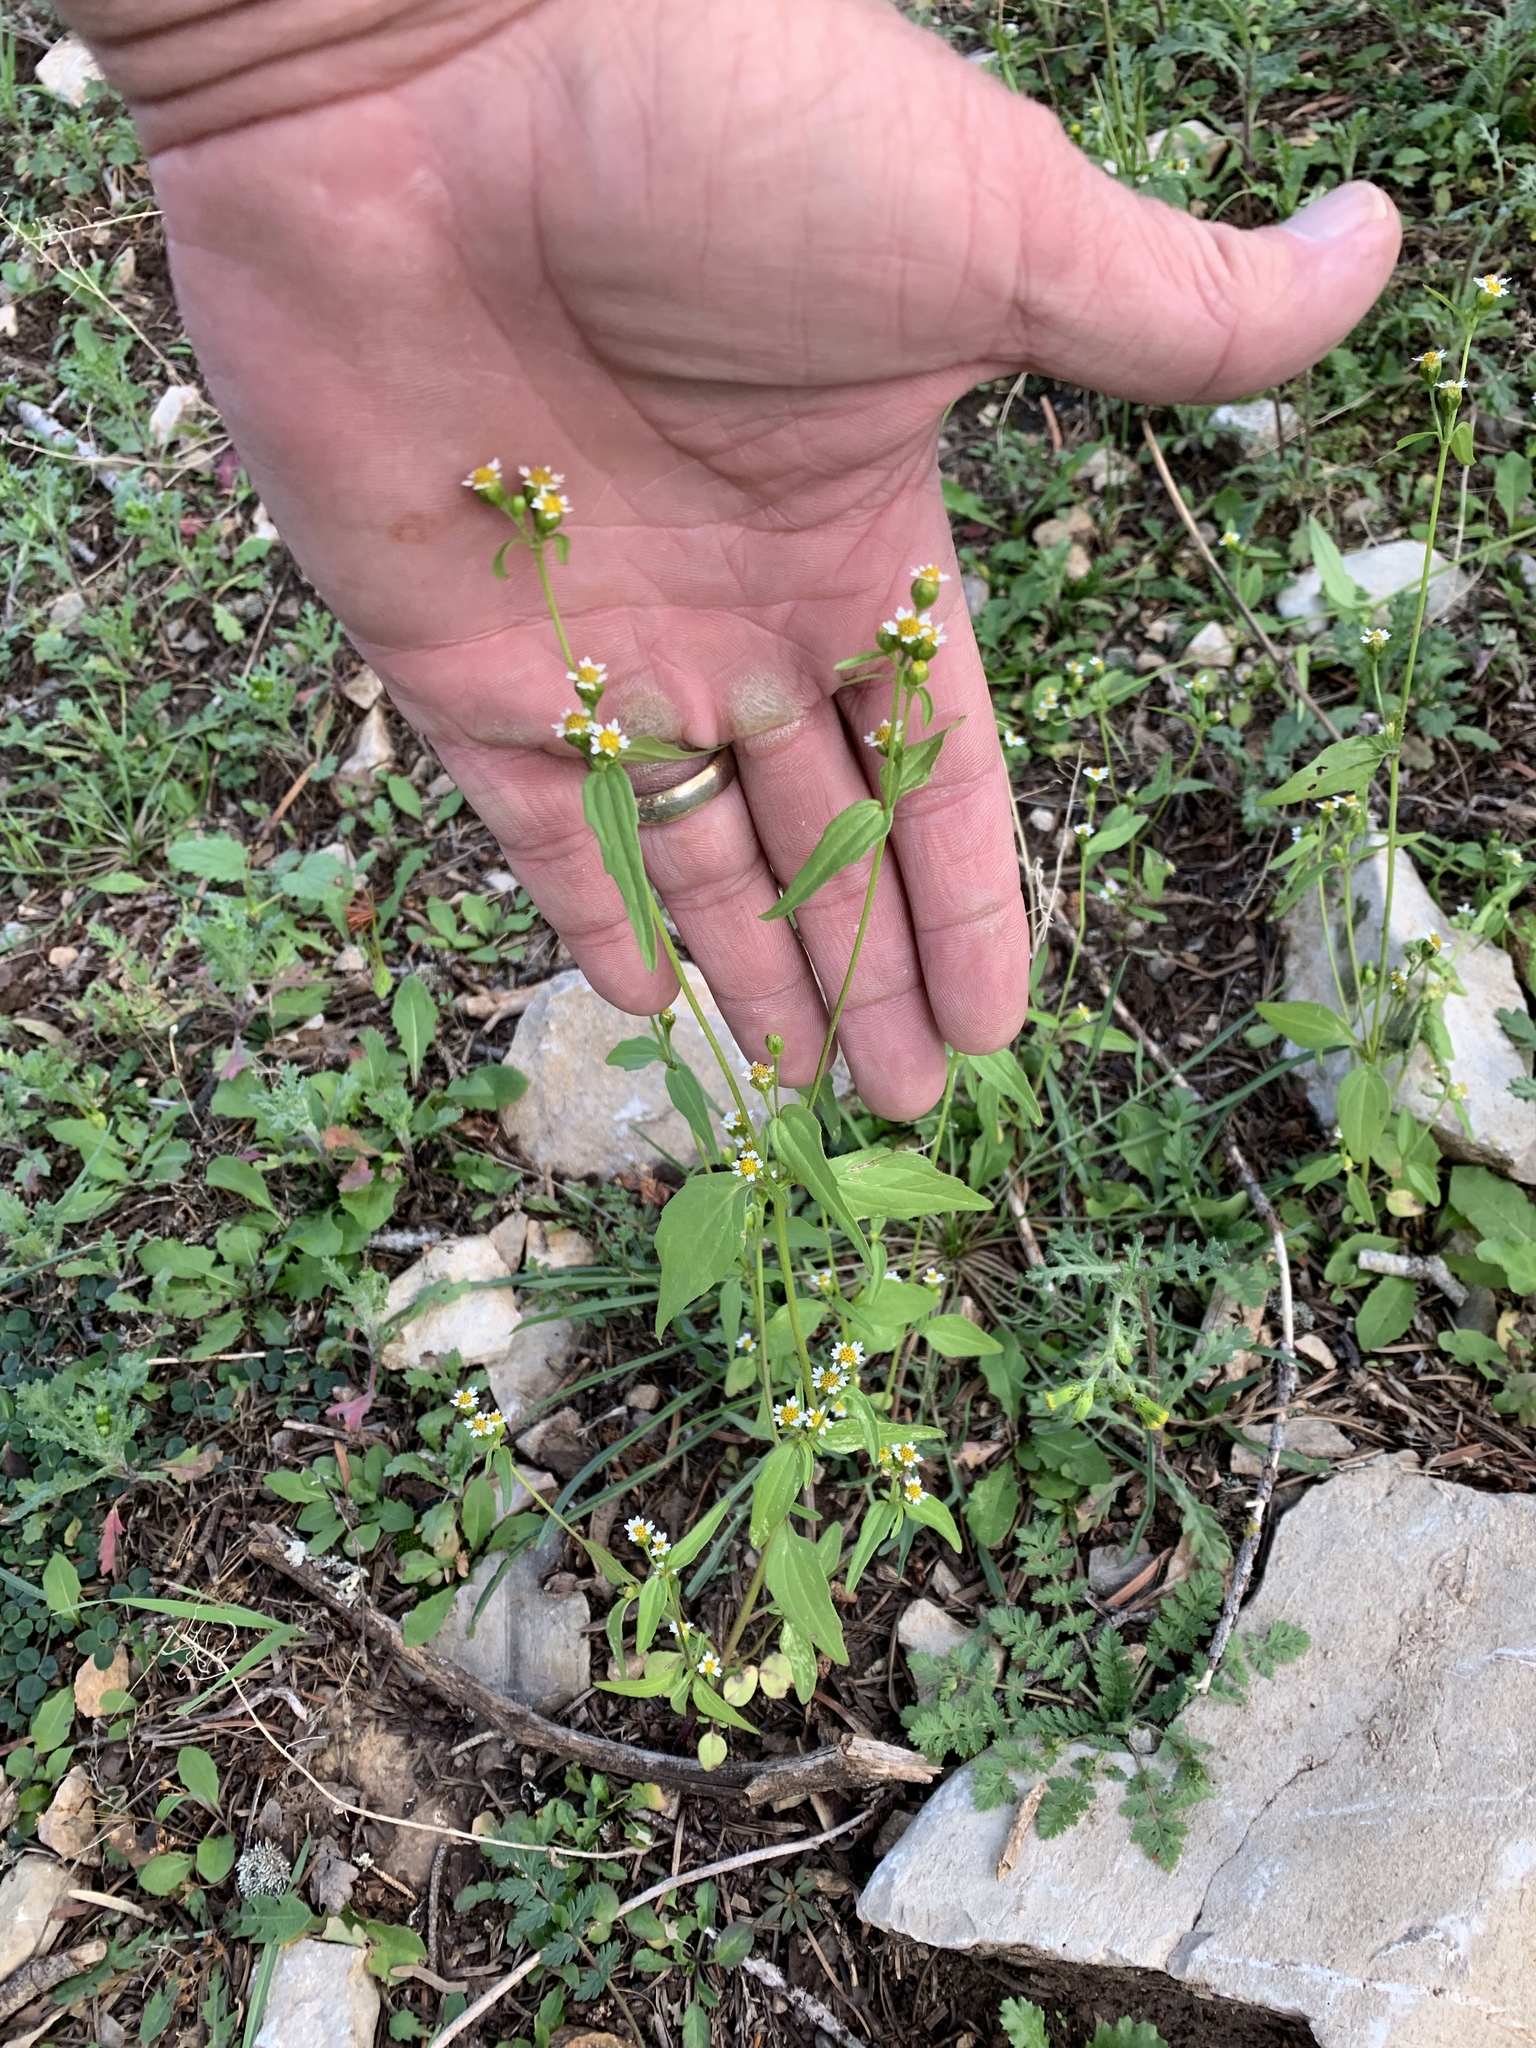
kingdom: Plantae
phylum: Tracheophyta
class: Magnoliopsida
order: Asterales
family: Asteraceae
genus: Galinsoga
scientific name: Galinsoga parviflora
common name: Gallant soldier
